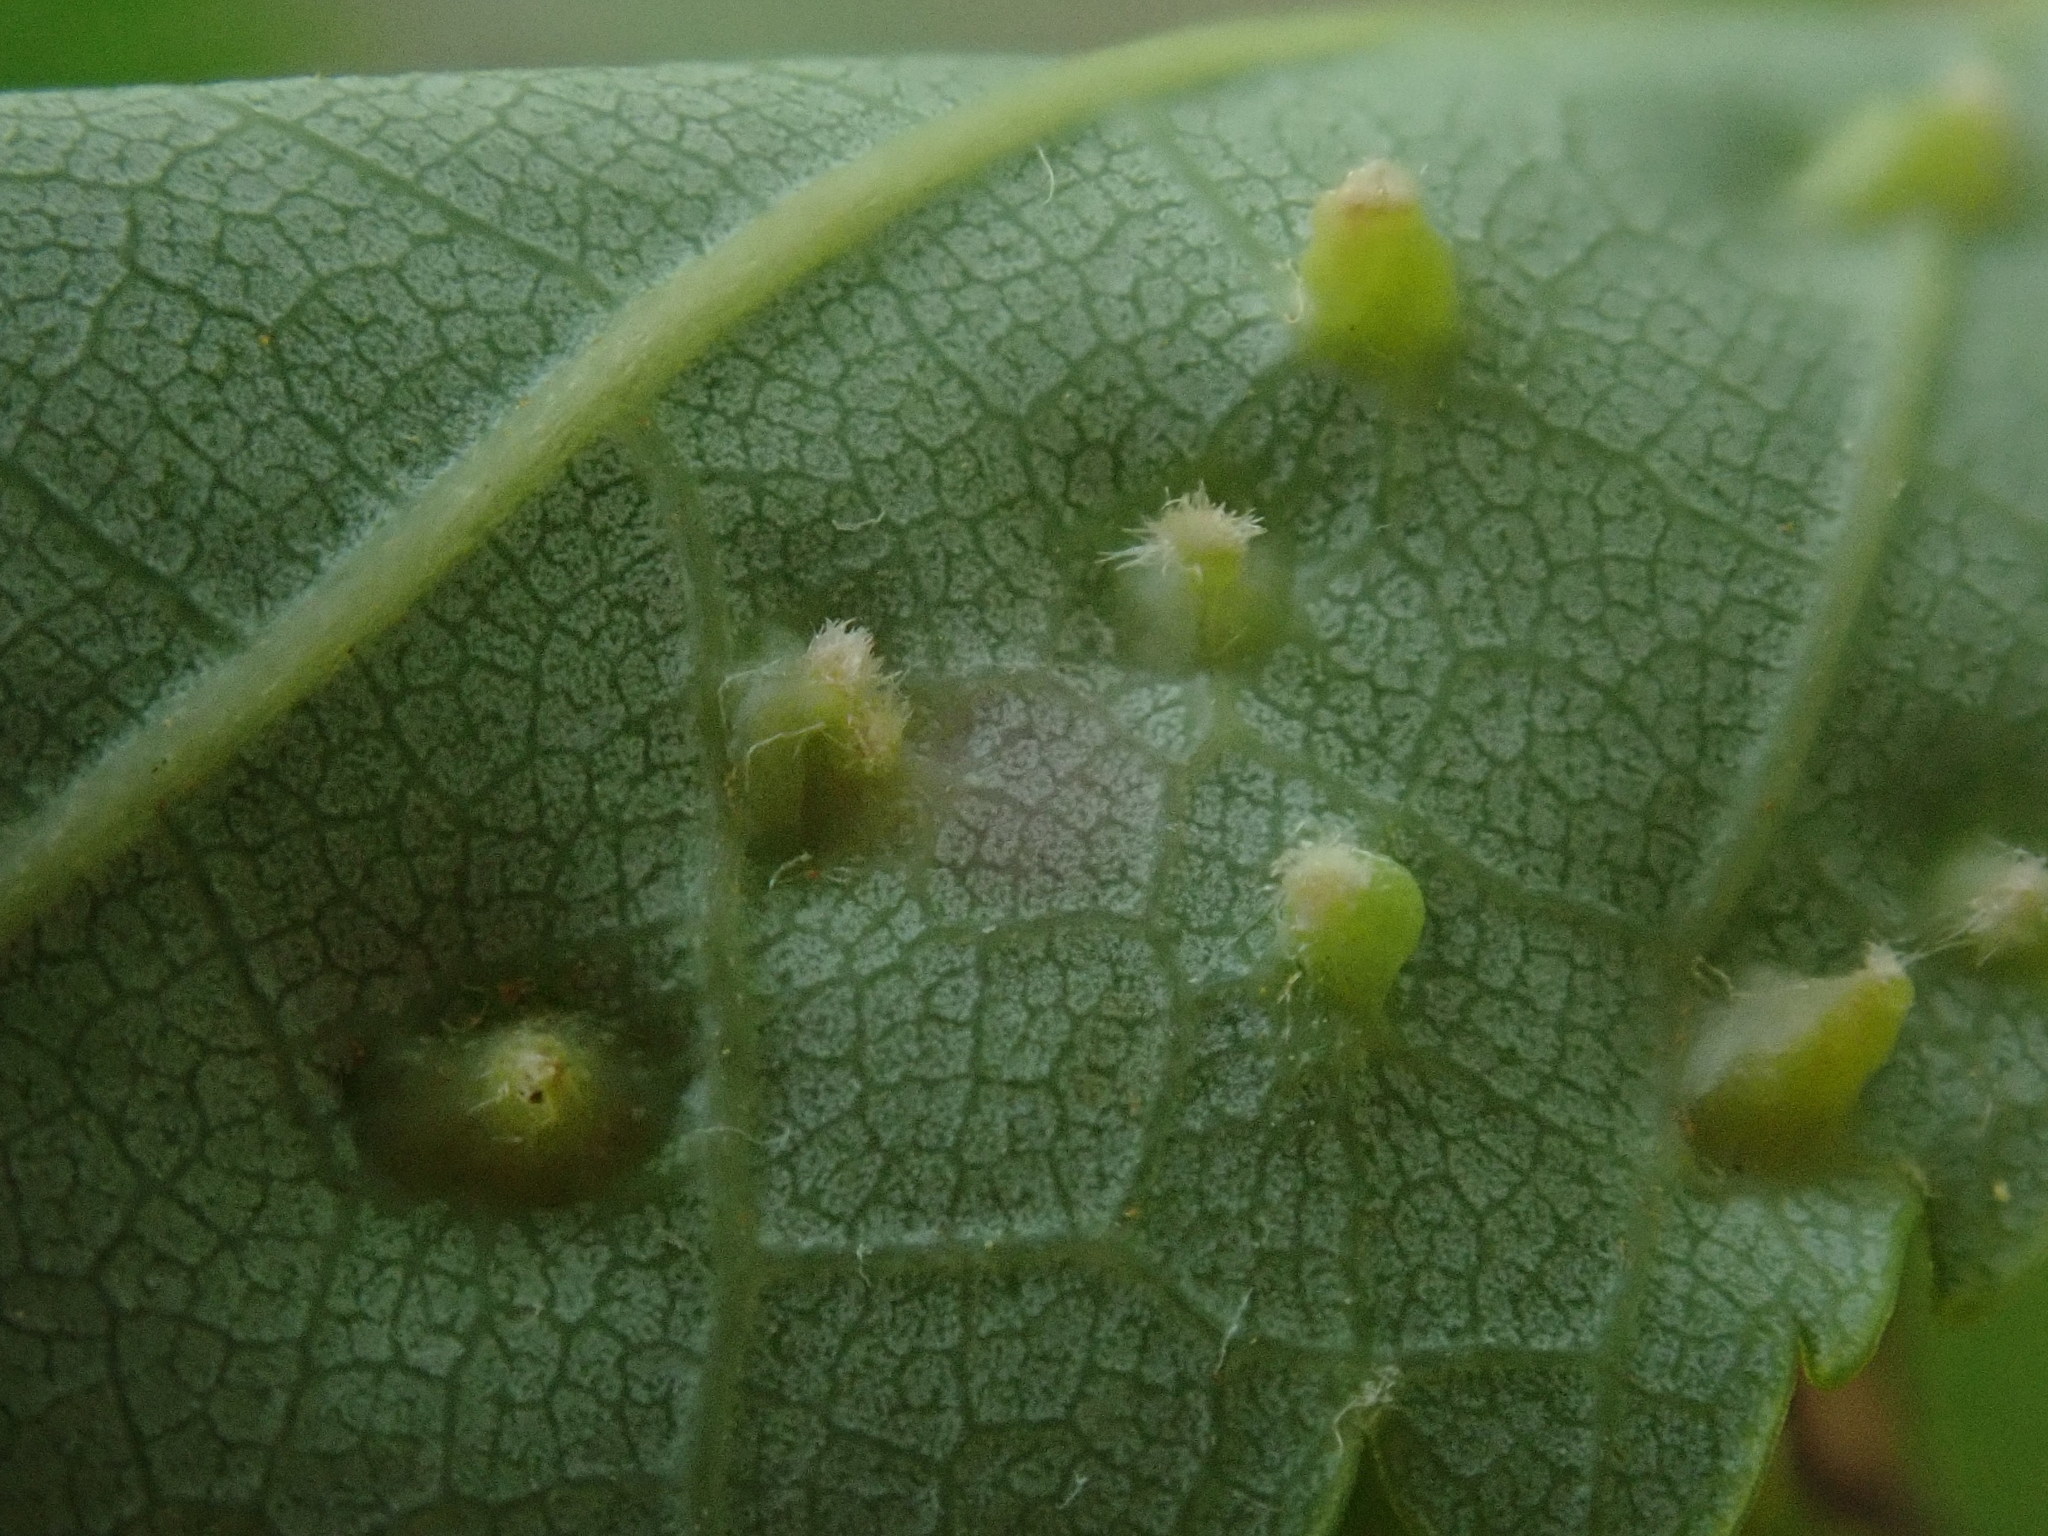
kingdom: Animalia
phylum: Arthropoda
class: Arachnida
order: Trombidiformes
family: Eriophyidae
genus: Vasates
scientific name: Vasates quadripedes
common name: Maple bladder gall mite
